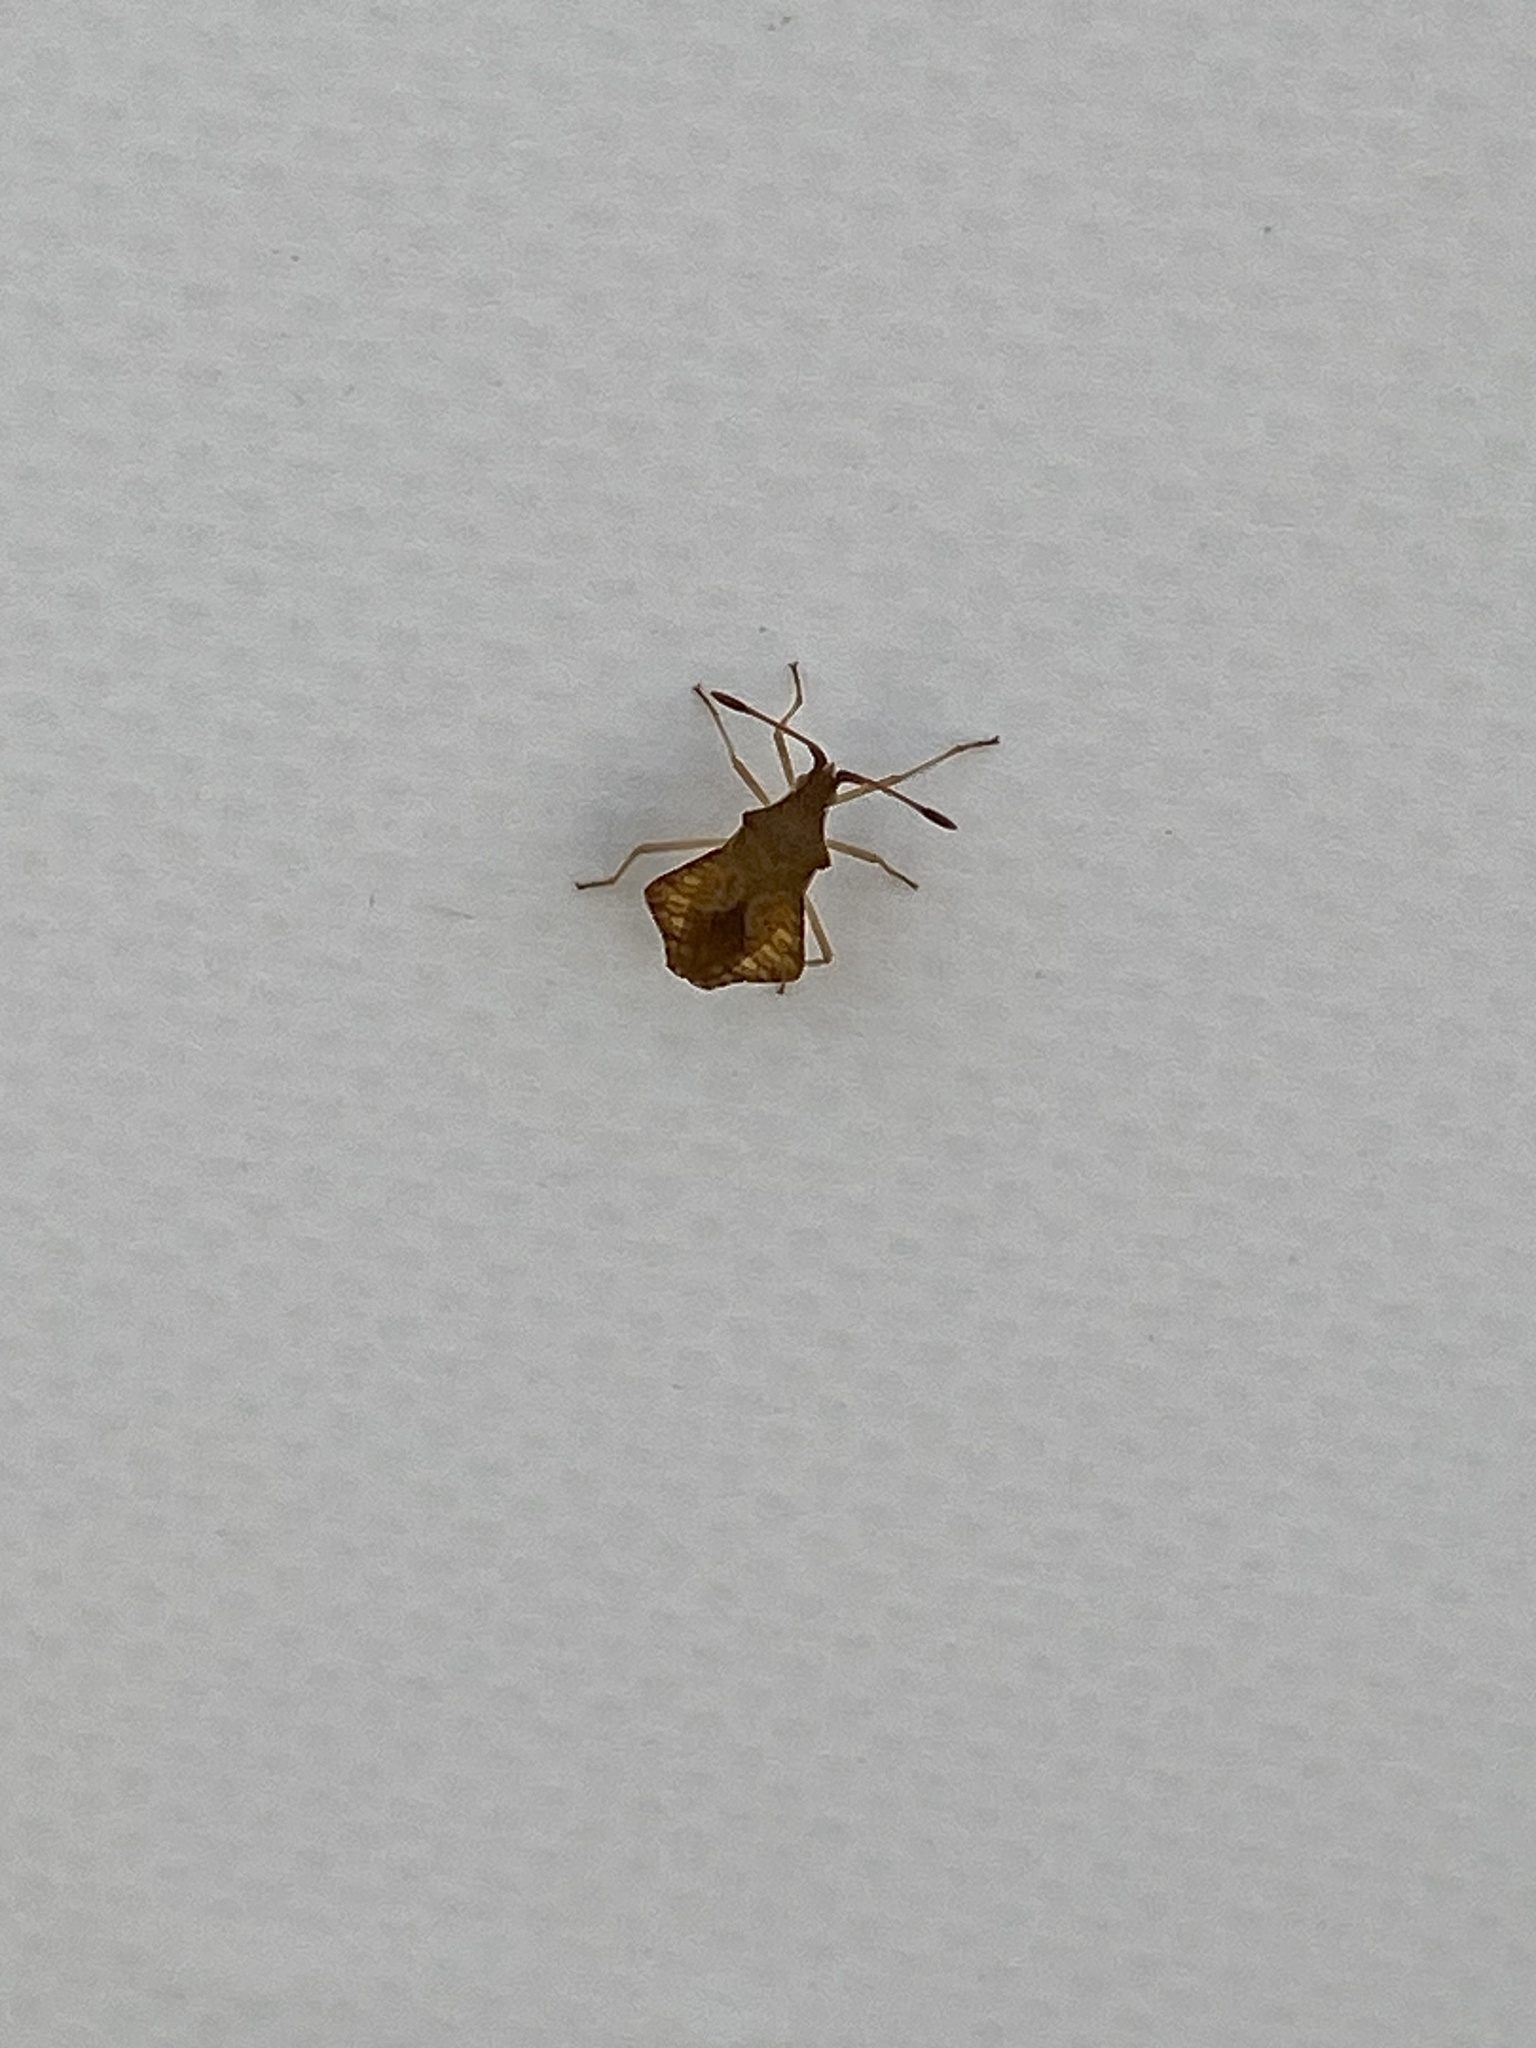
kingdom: Animalia
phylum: Arthropoda
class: Insecta
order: Hemiptera
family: Coreidae
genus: Syromastus
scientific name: Syromastus rhombeus
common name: Rhombic leatherbug
